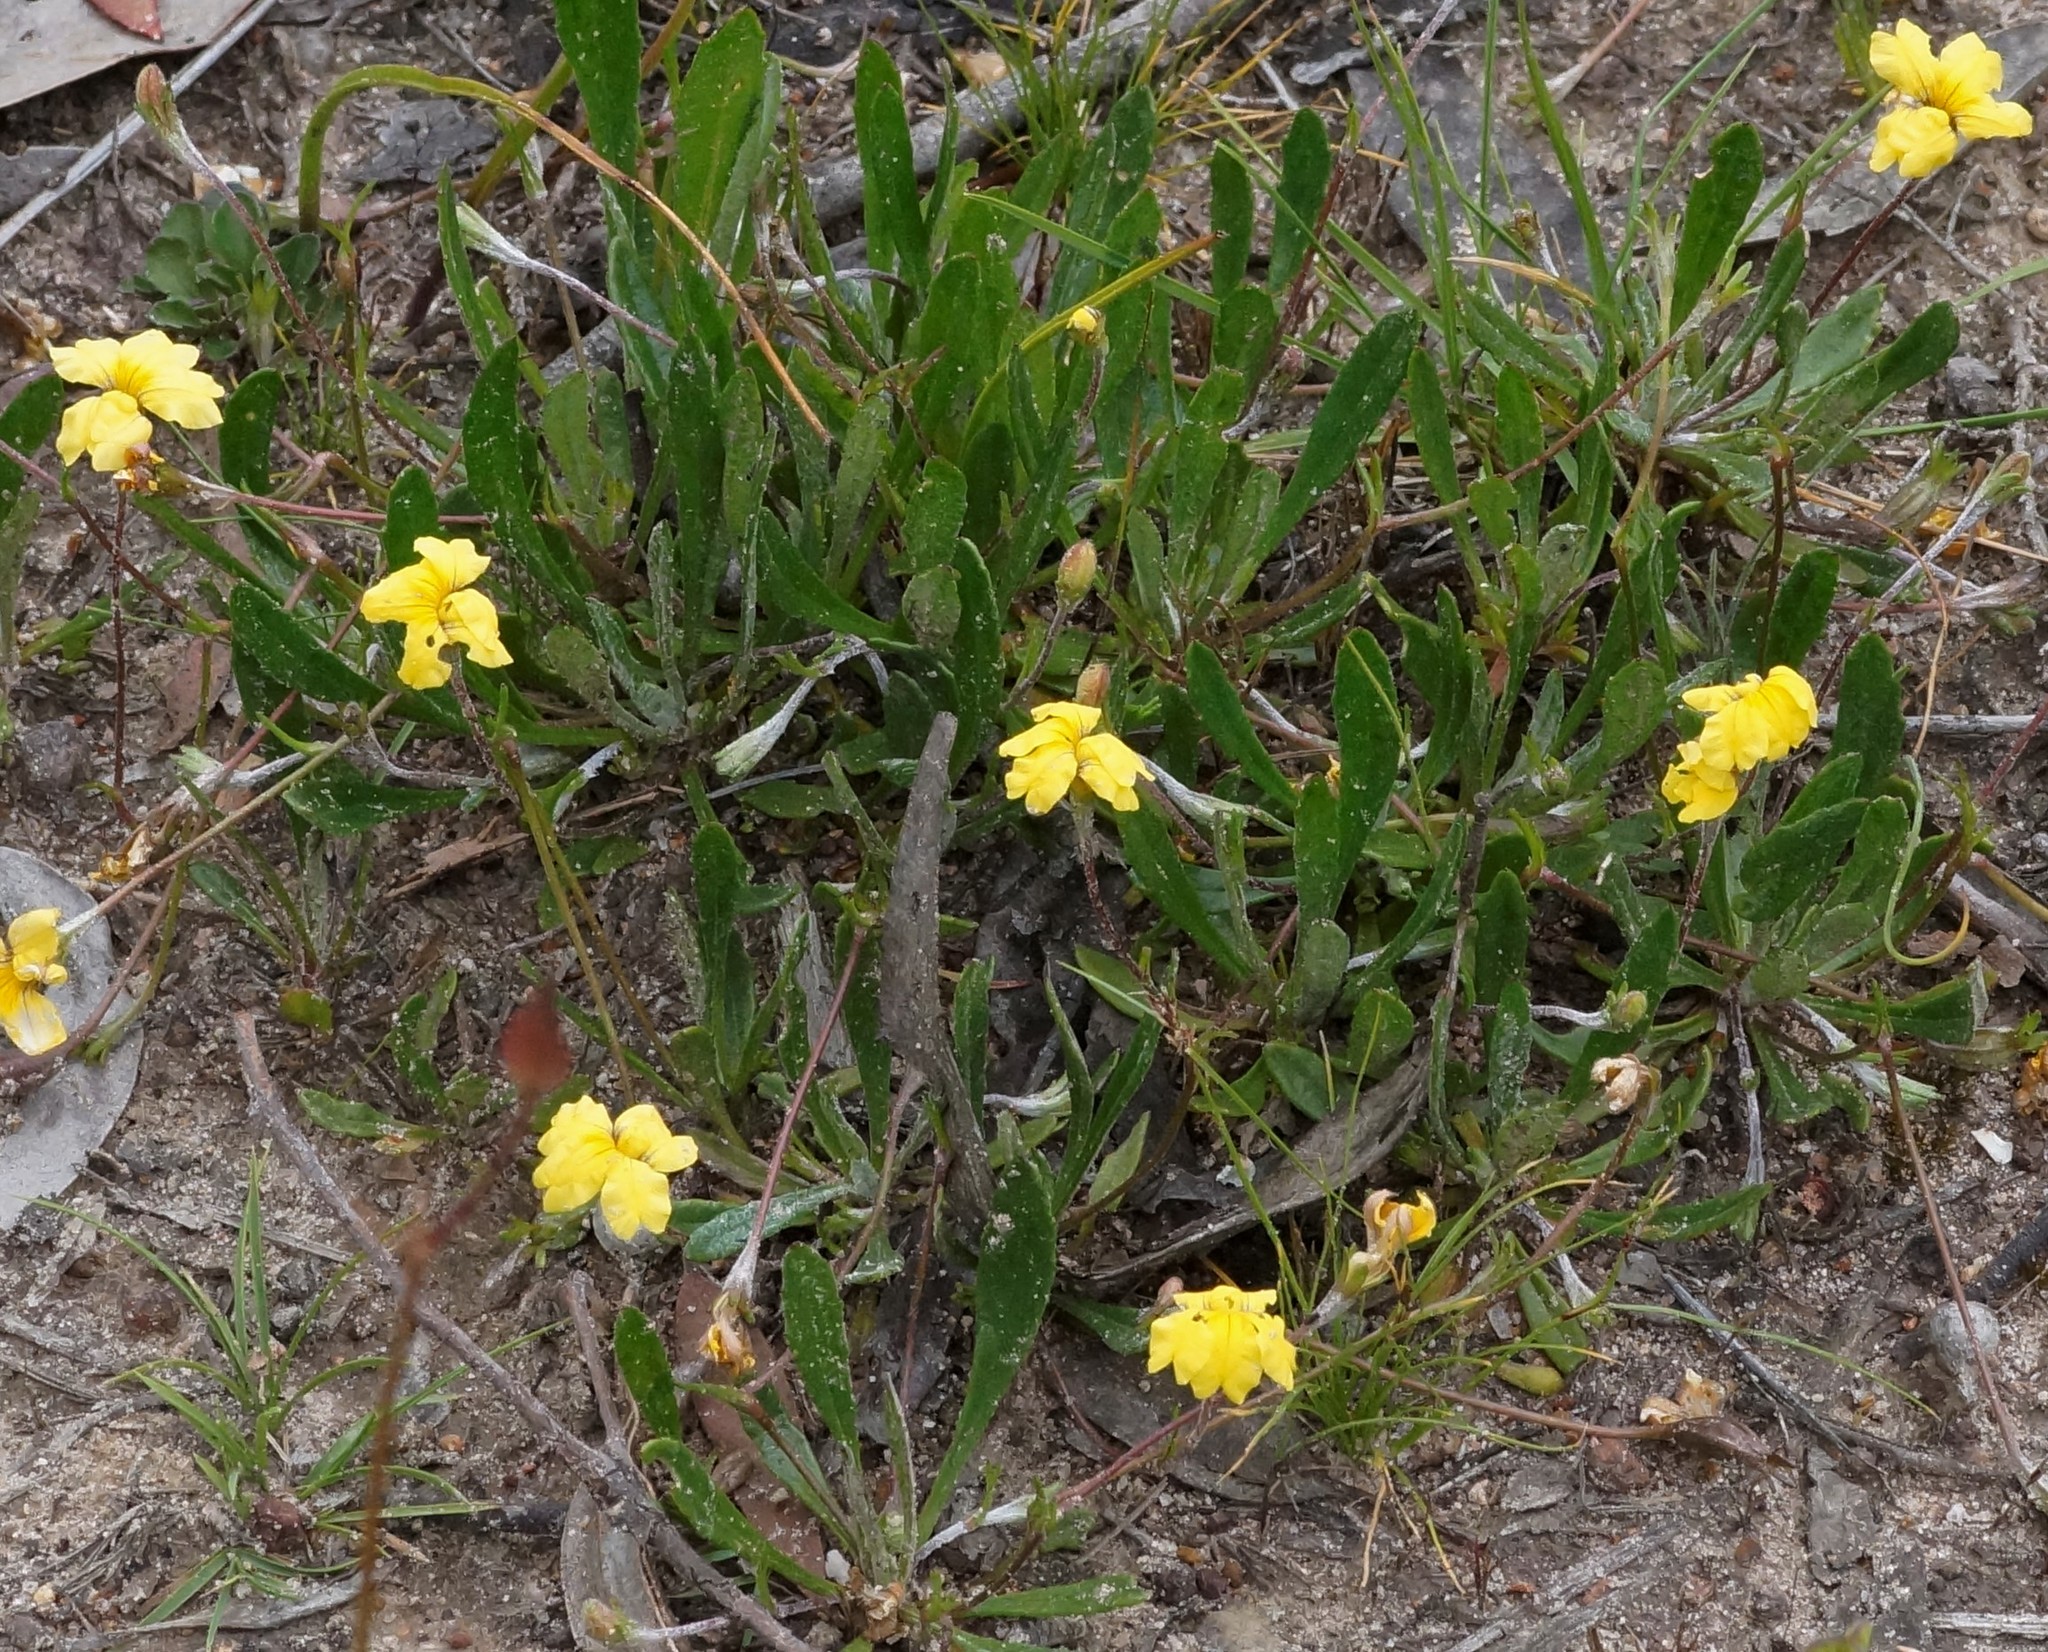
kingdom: Plantae
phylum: Tracheophyta
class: Magnoliopsida
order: Asterales
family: Goodeniaceae
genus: Goodenia
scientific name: Goodenia geniculata
